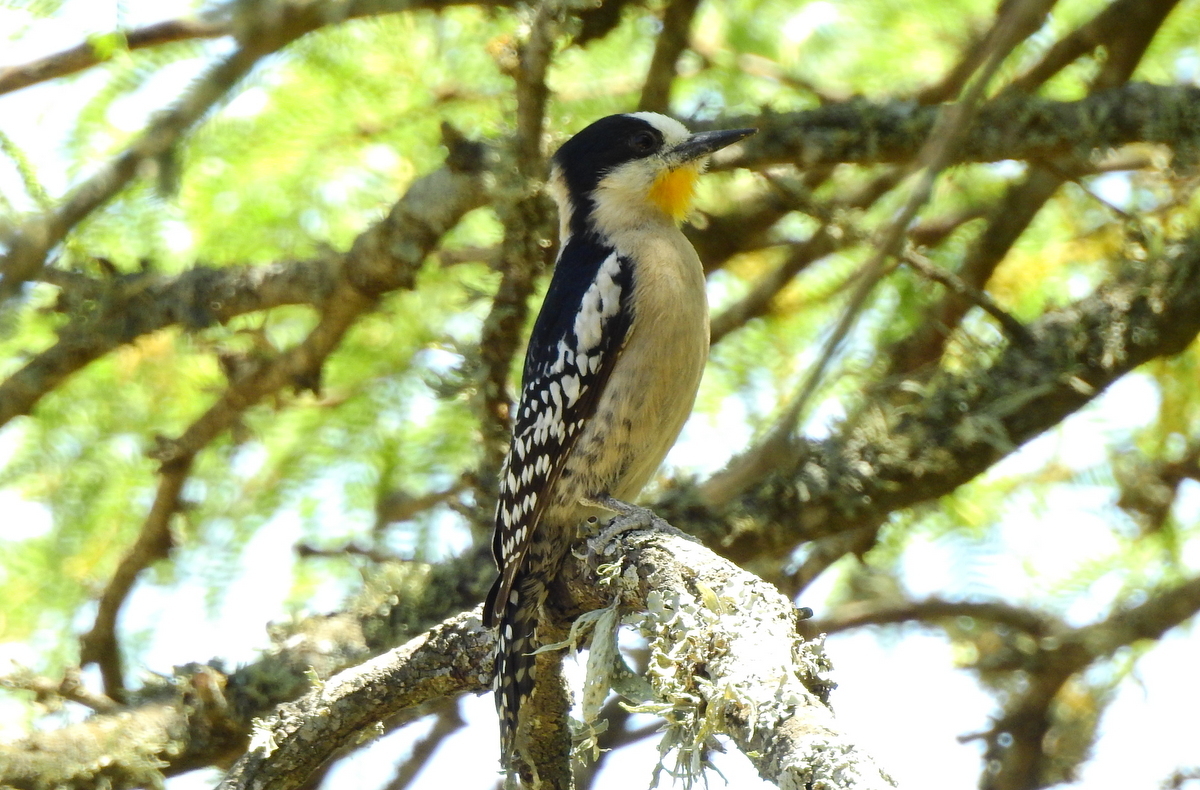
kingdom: Animalia
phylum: Chordata
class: Aves
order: Piciformes
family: Picidae
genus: Melanerpes
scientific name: Melanerpes cactorum
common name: White-fronted woodpecker
